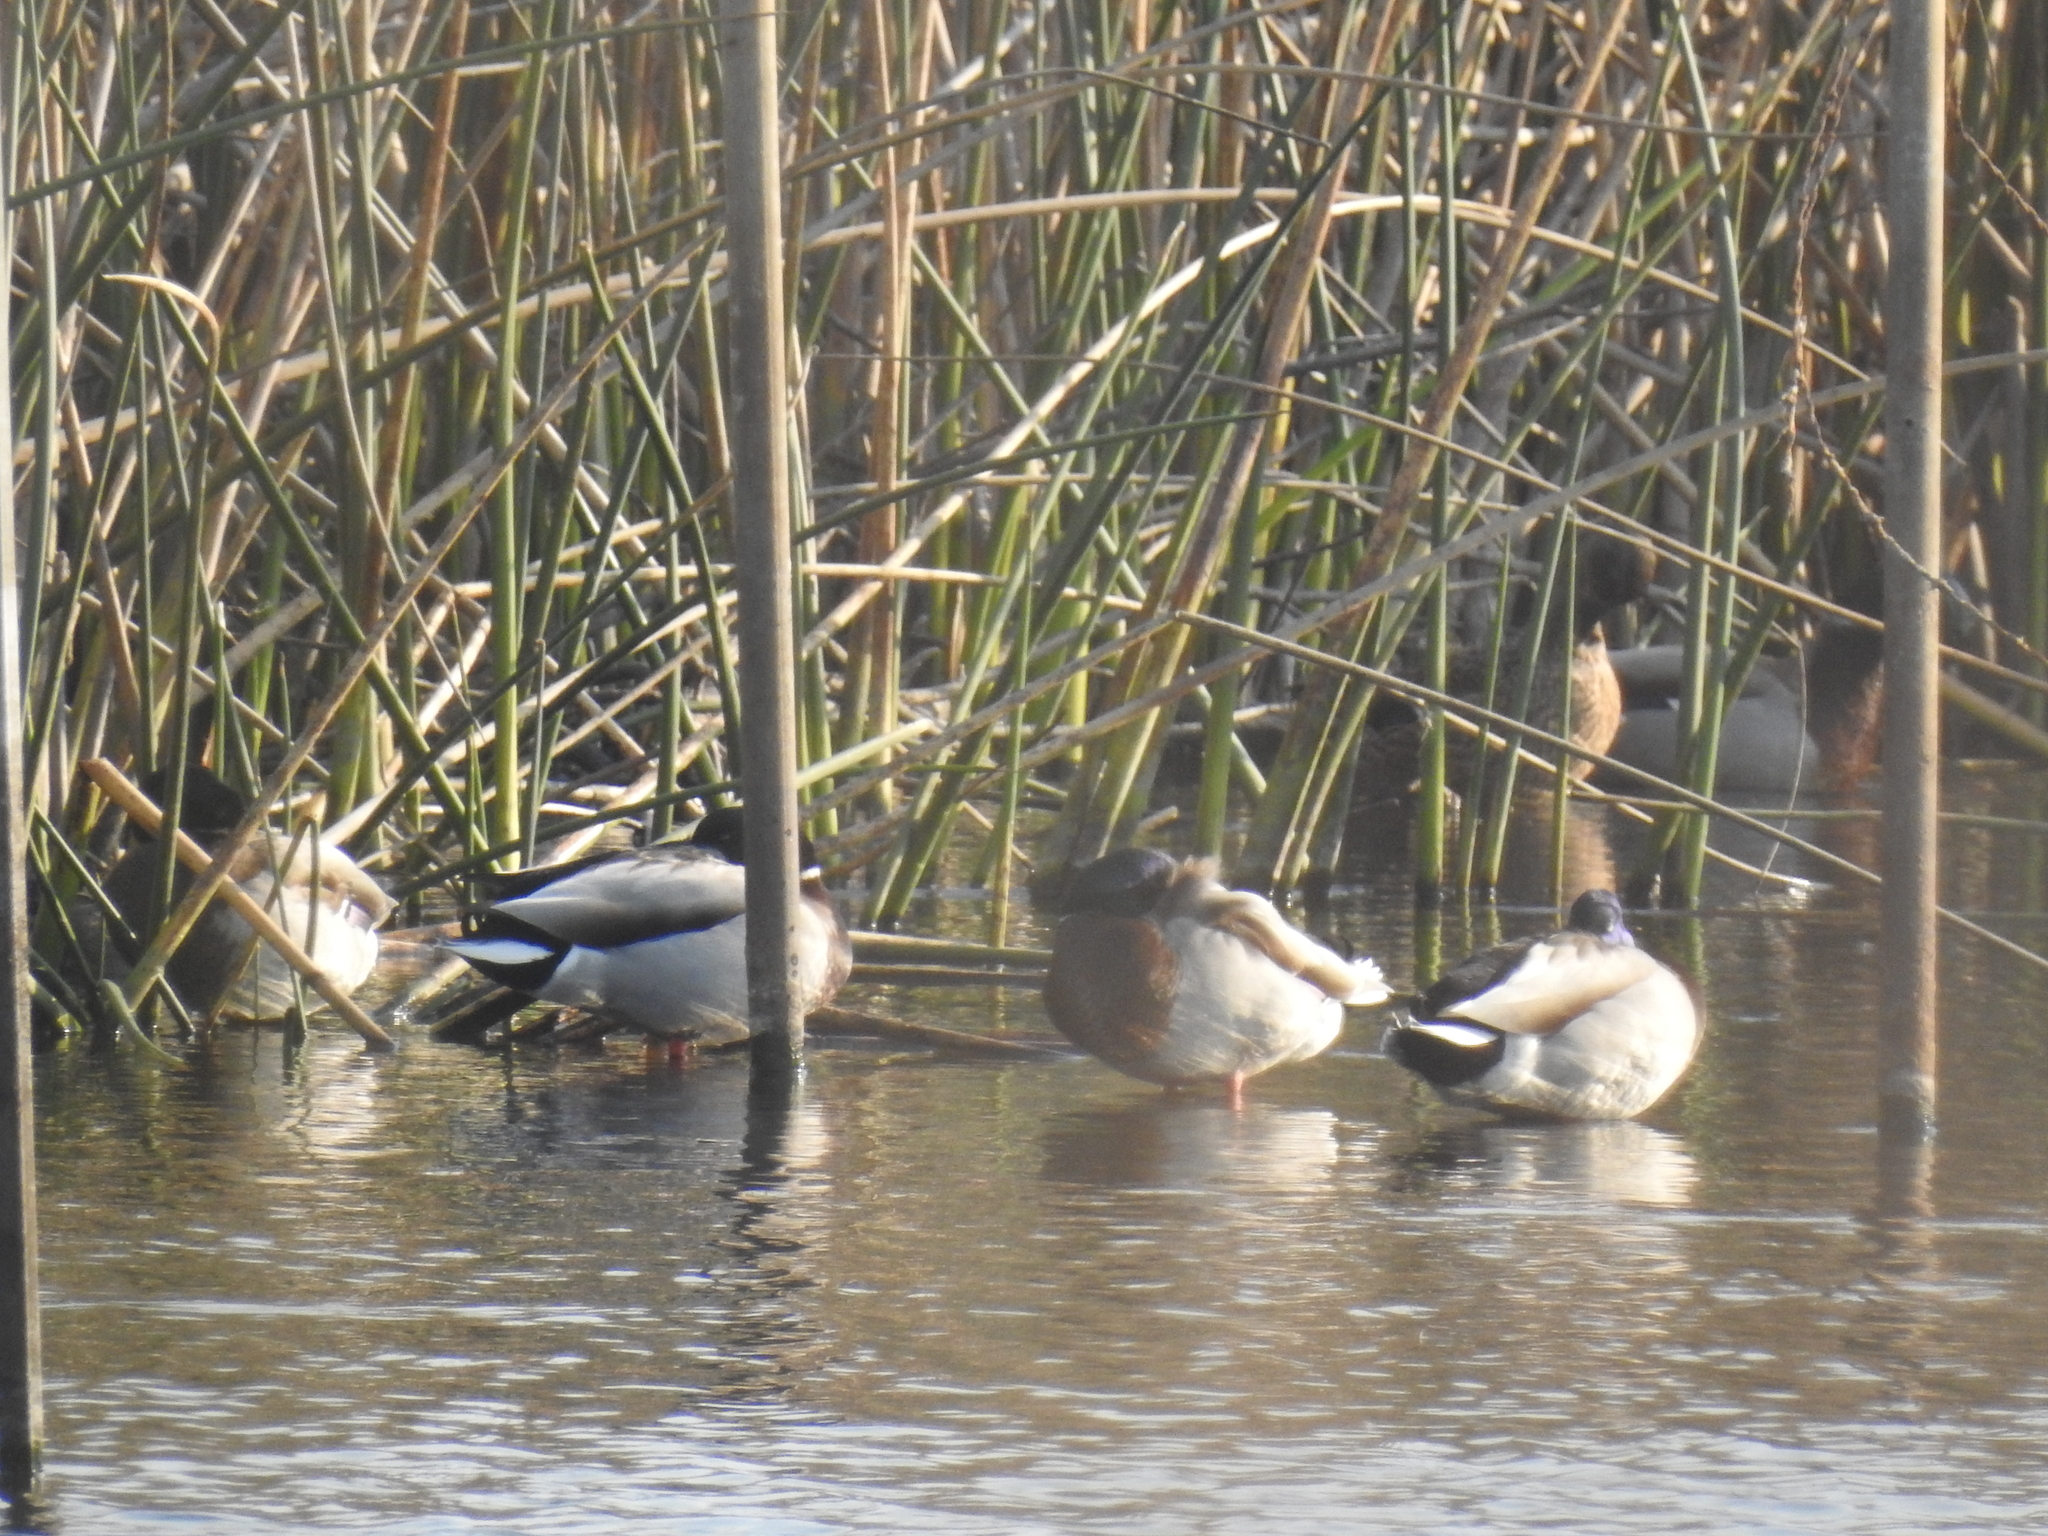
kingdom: Animalia
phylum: Chordata
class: Aves
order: Anseriformes
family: Anatidae
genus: Anas
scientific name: Anas platyrhynchos
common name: Mallard
